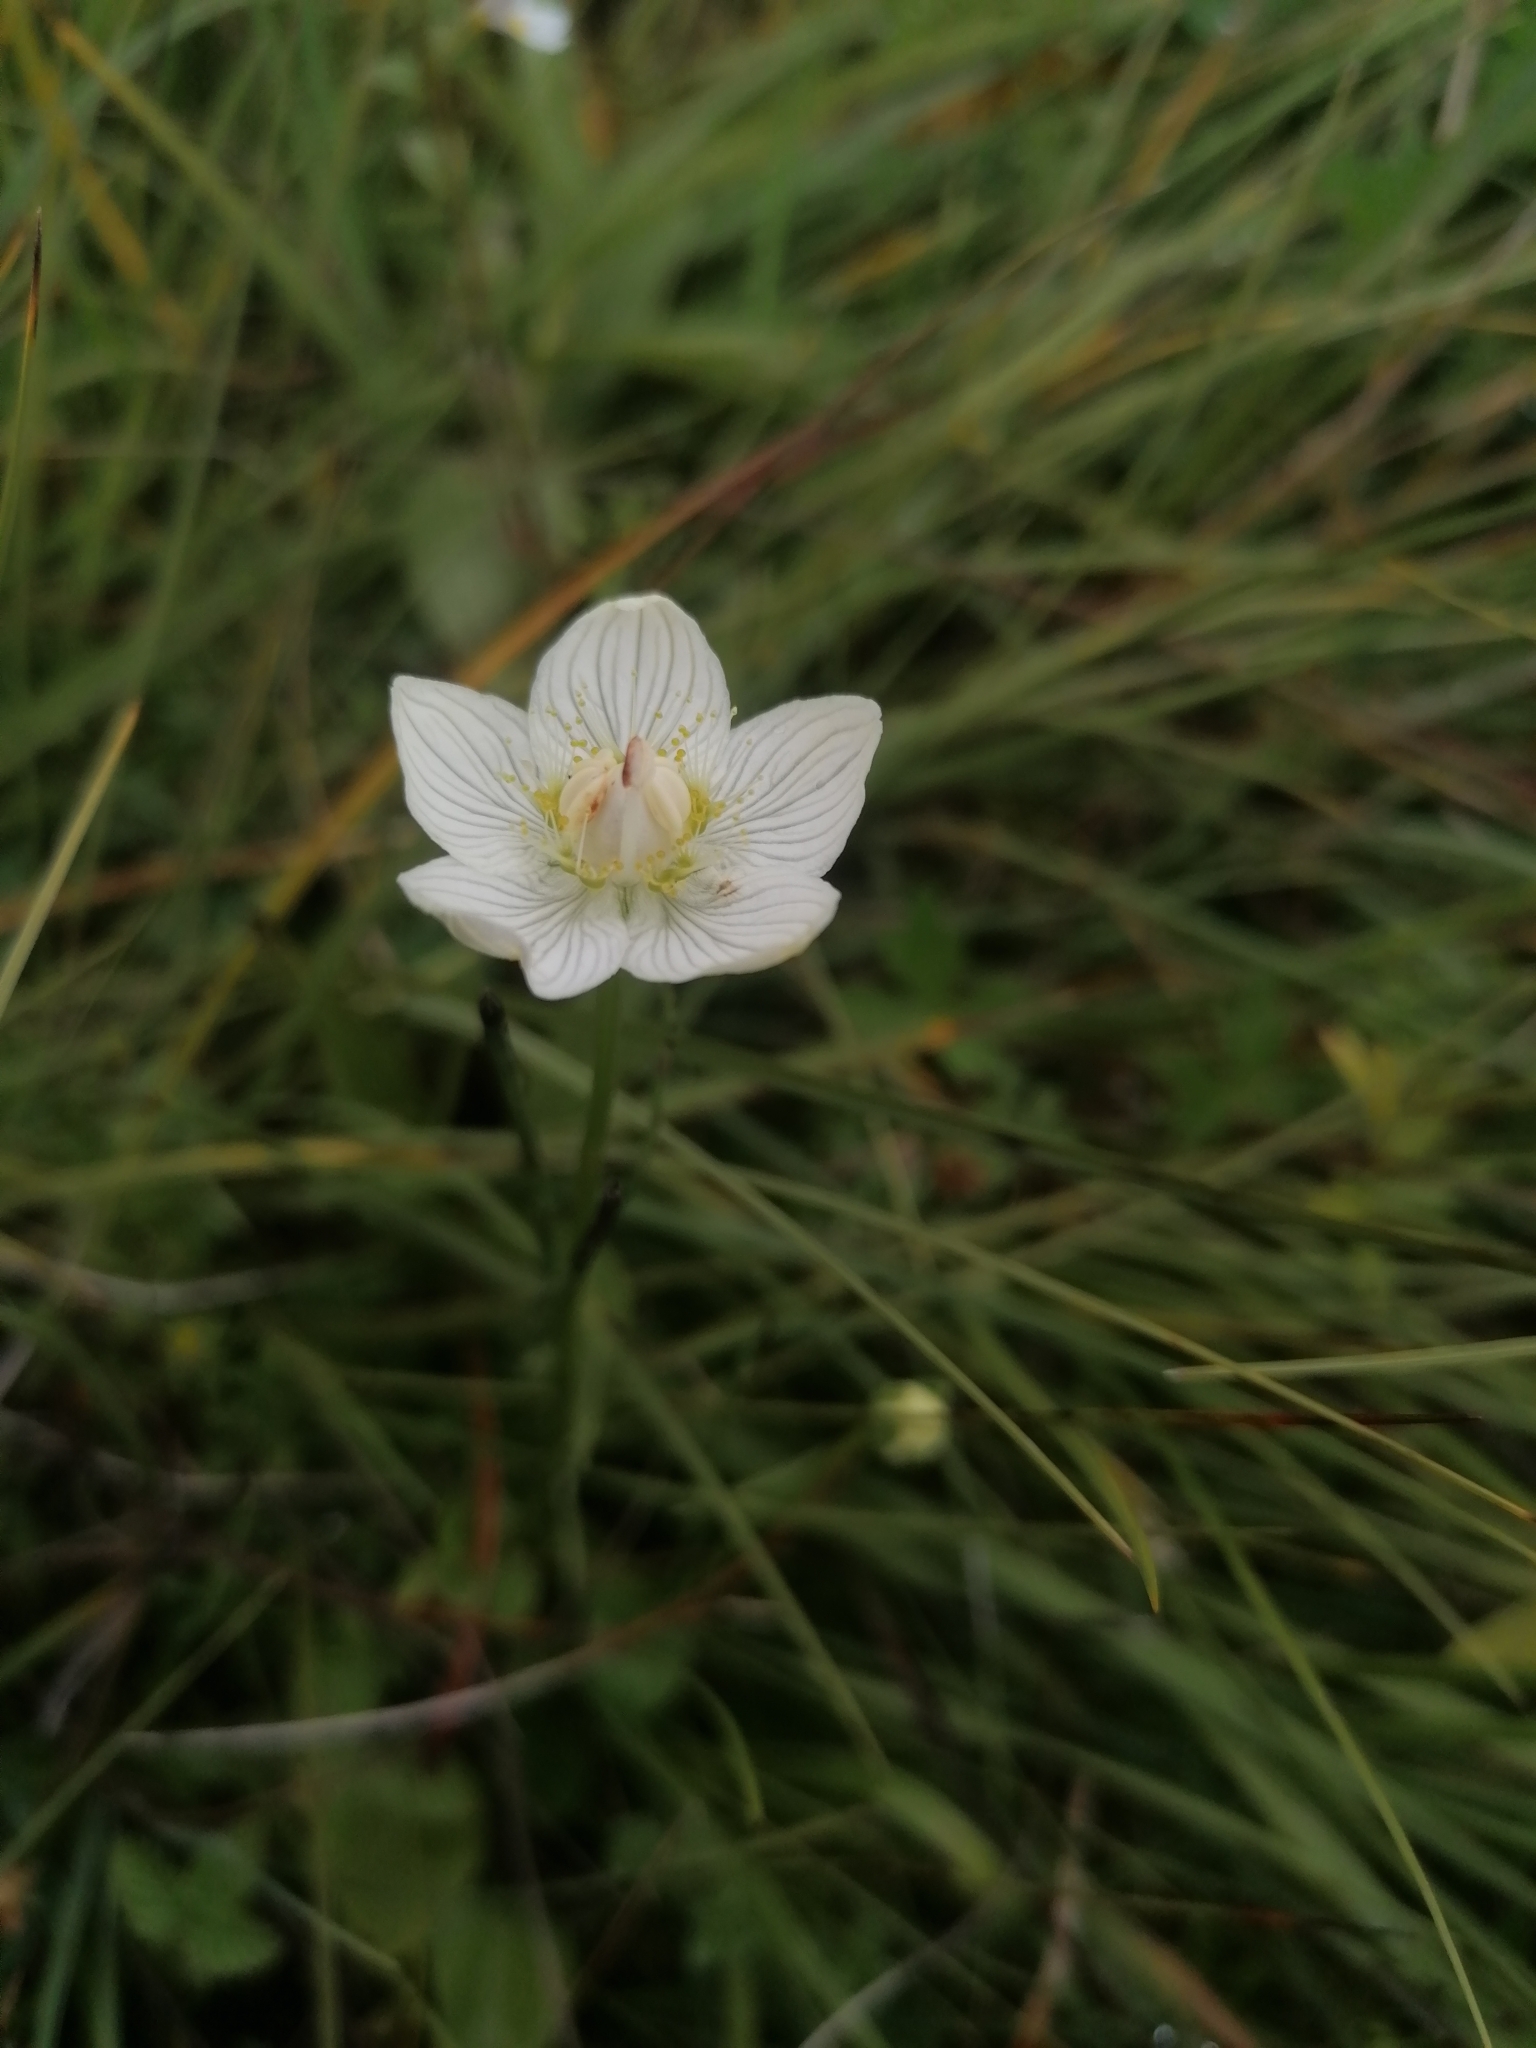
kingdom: Plantae
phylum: Tracheophyta
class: Magnoliopsida
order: Celastrales
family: Parnassiaceae
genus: Parnassia
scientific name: Parnassia palustris
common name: Grass-of-parnassus
